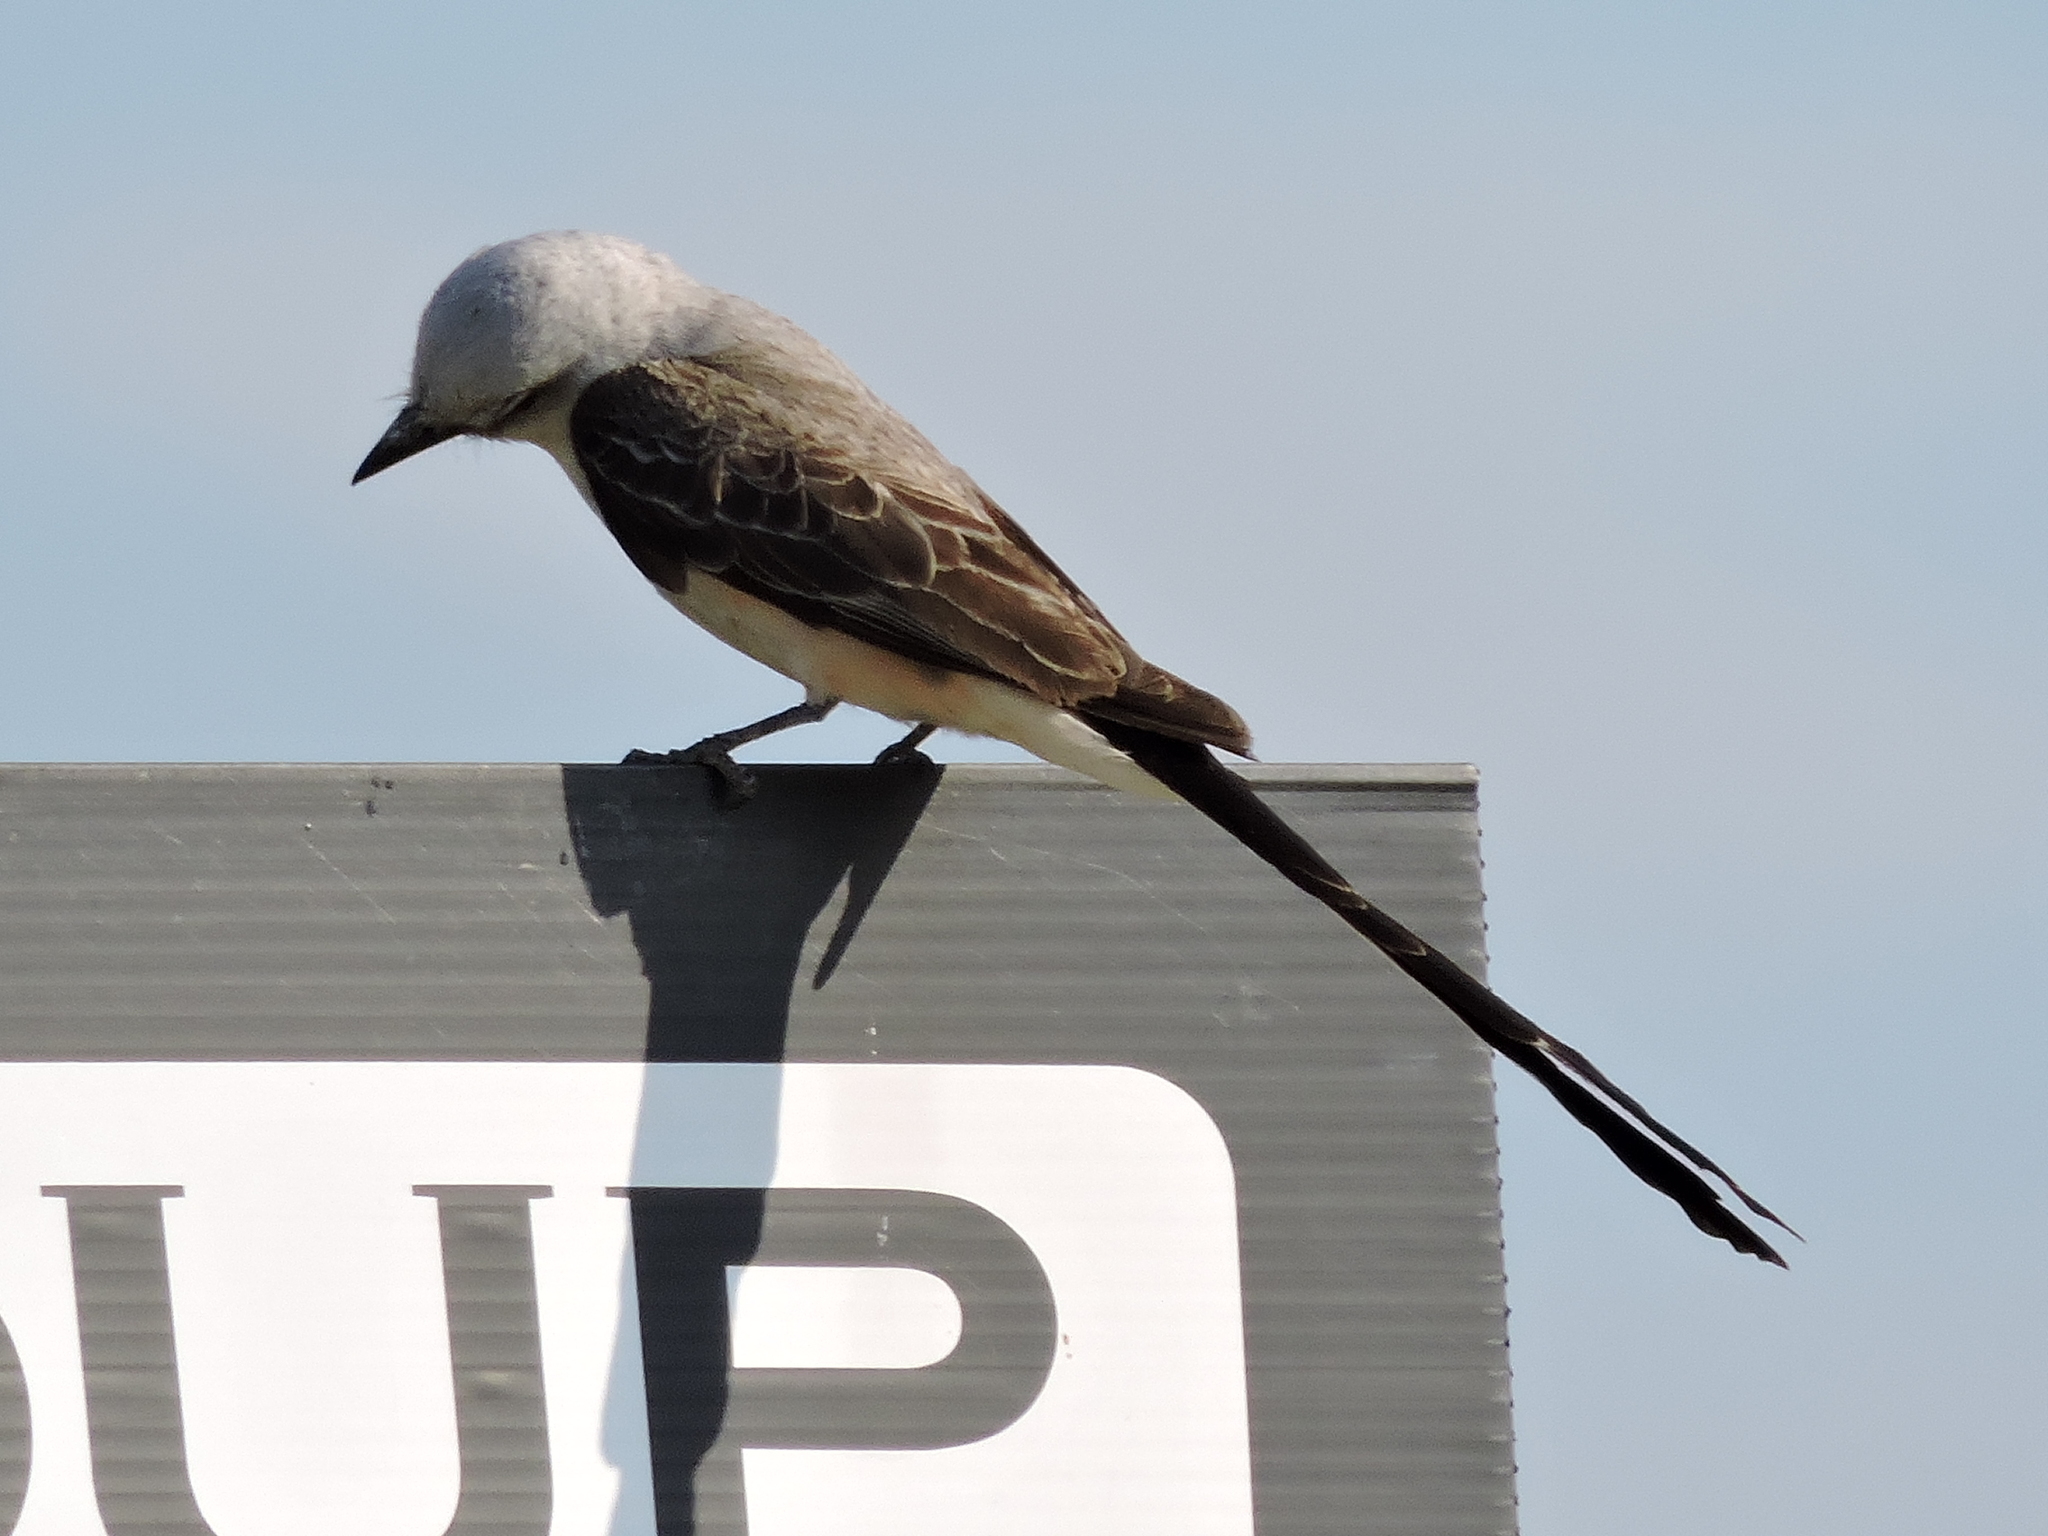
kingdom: Animalia
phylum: Chordata
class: Aves
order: Passeriformes
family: Tyrannidae
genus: Tyrannus
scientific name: Tyrannus forficatus
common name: Scissor-tailed flycatcher
